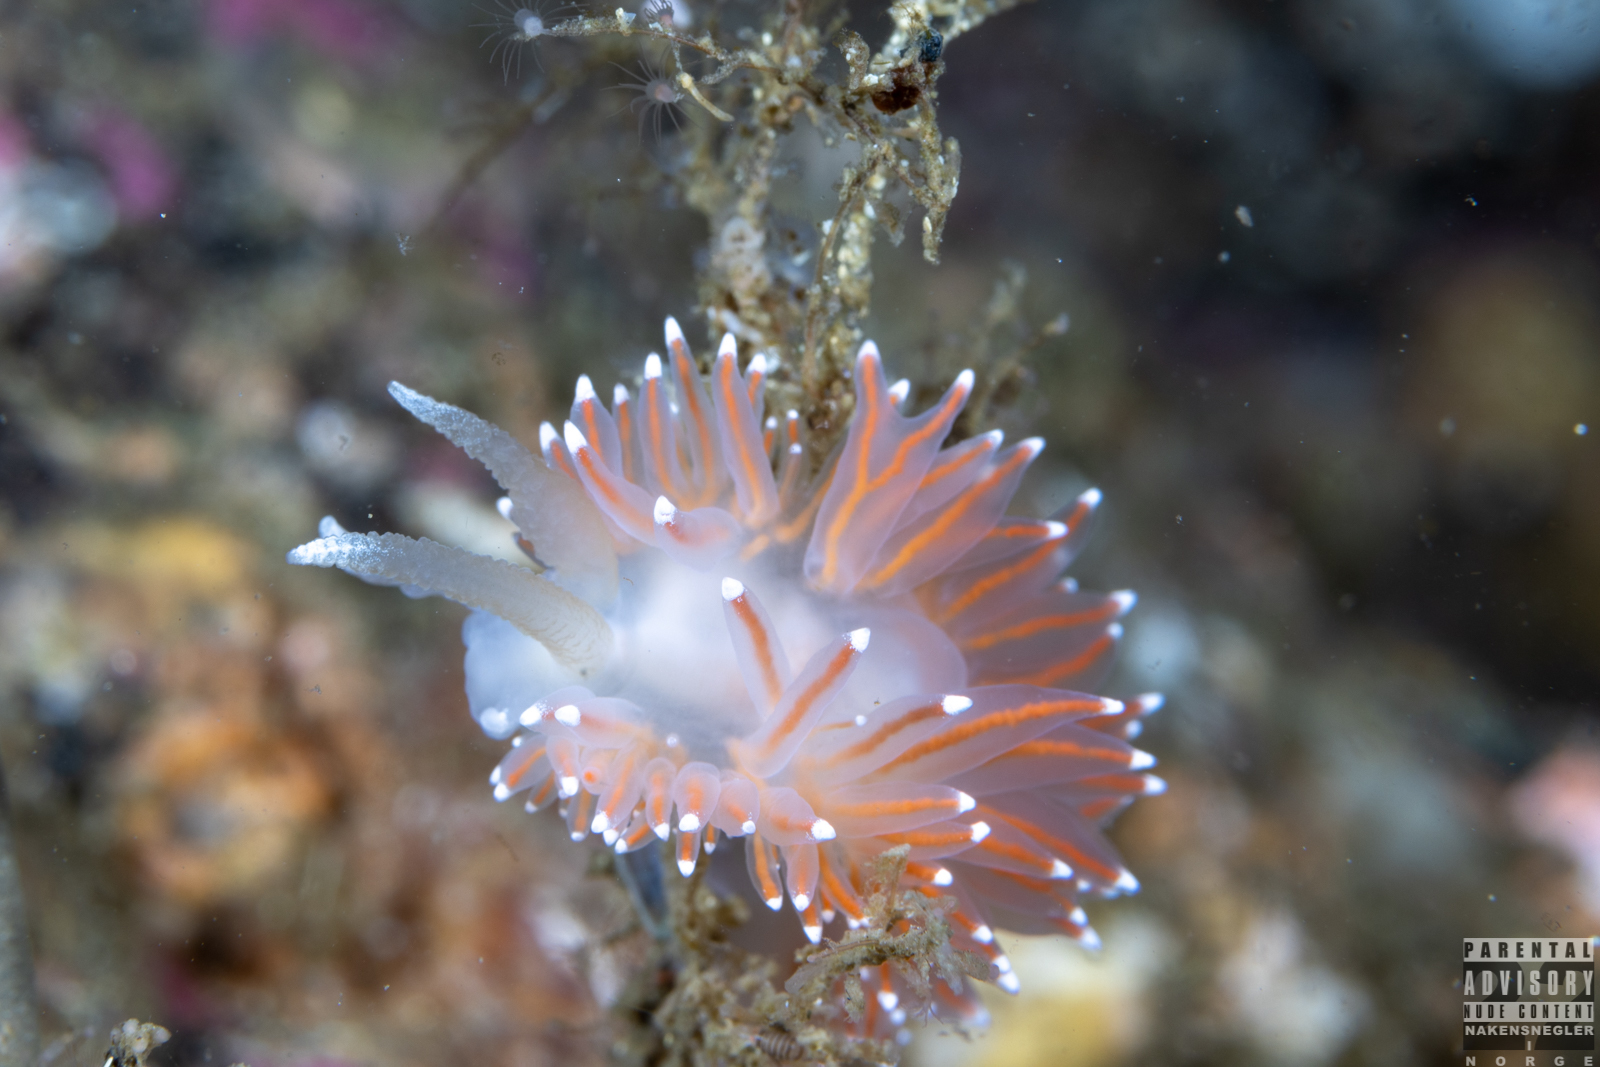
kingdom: Animalia
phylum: Mollusca
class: Gastropoda
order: Nudibranchia
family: Coryphellidae
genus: Coryphella
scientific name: Coryphella nobilis
